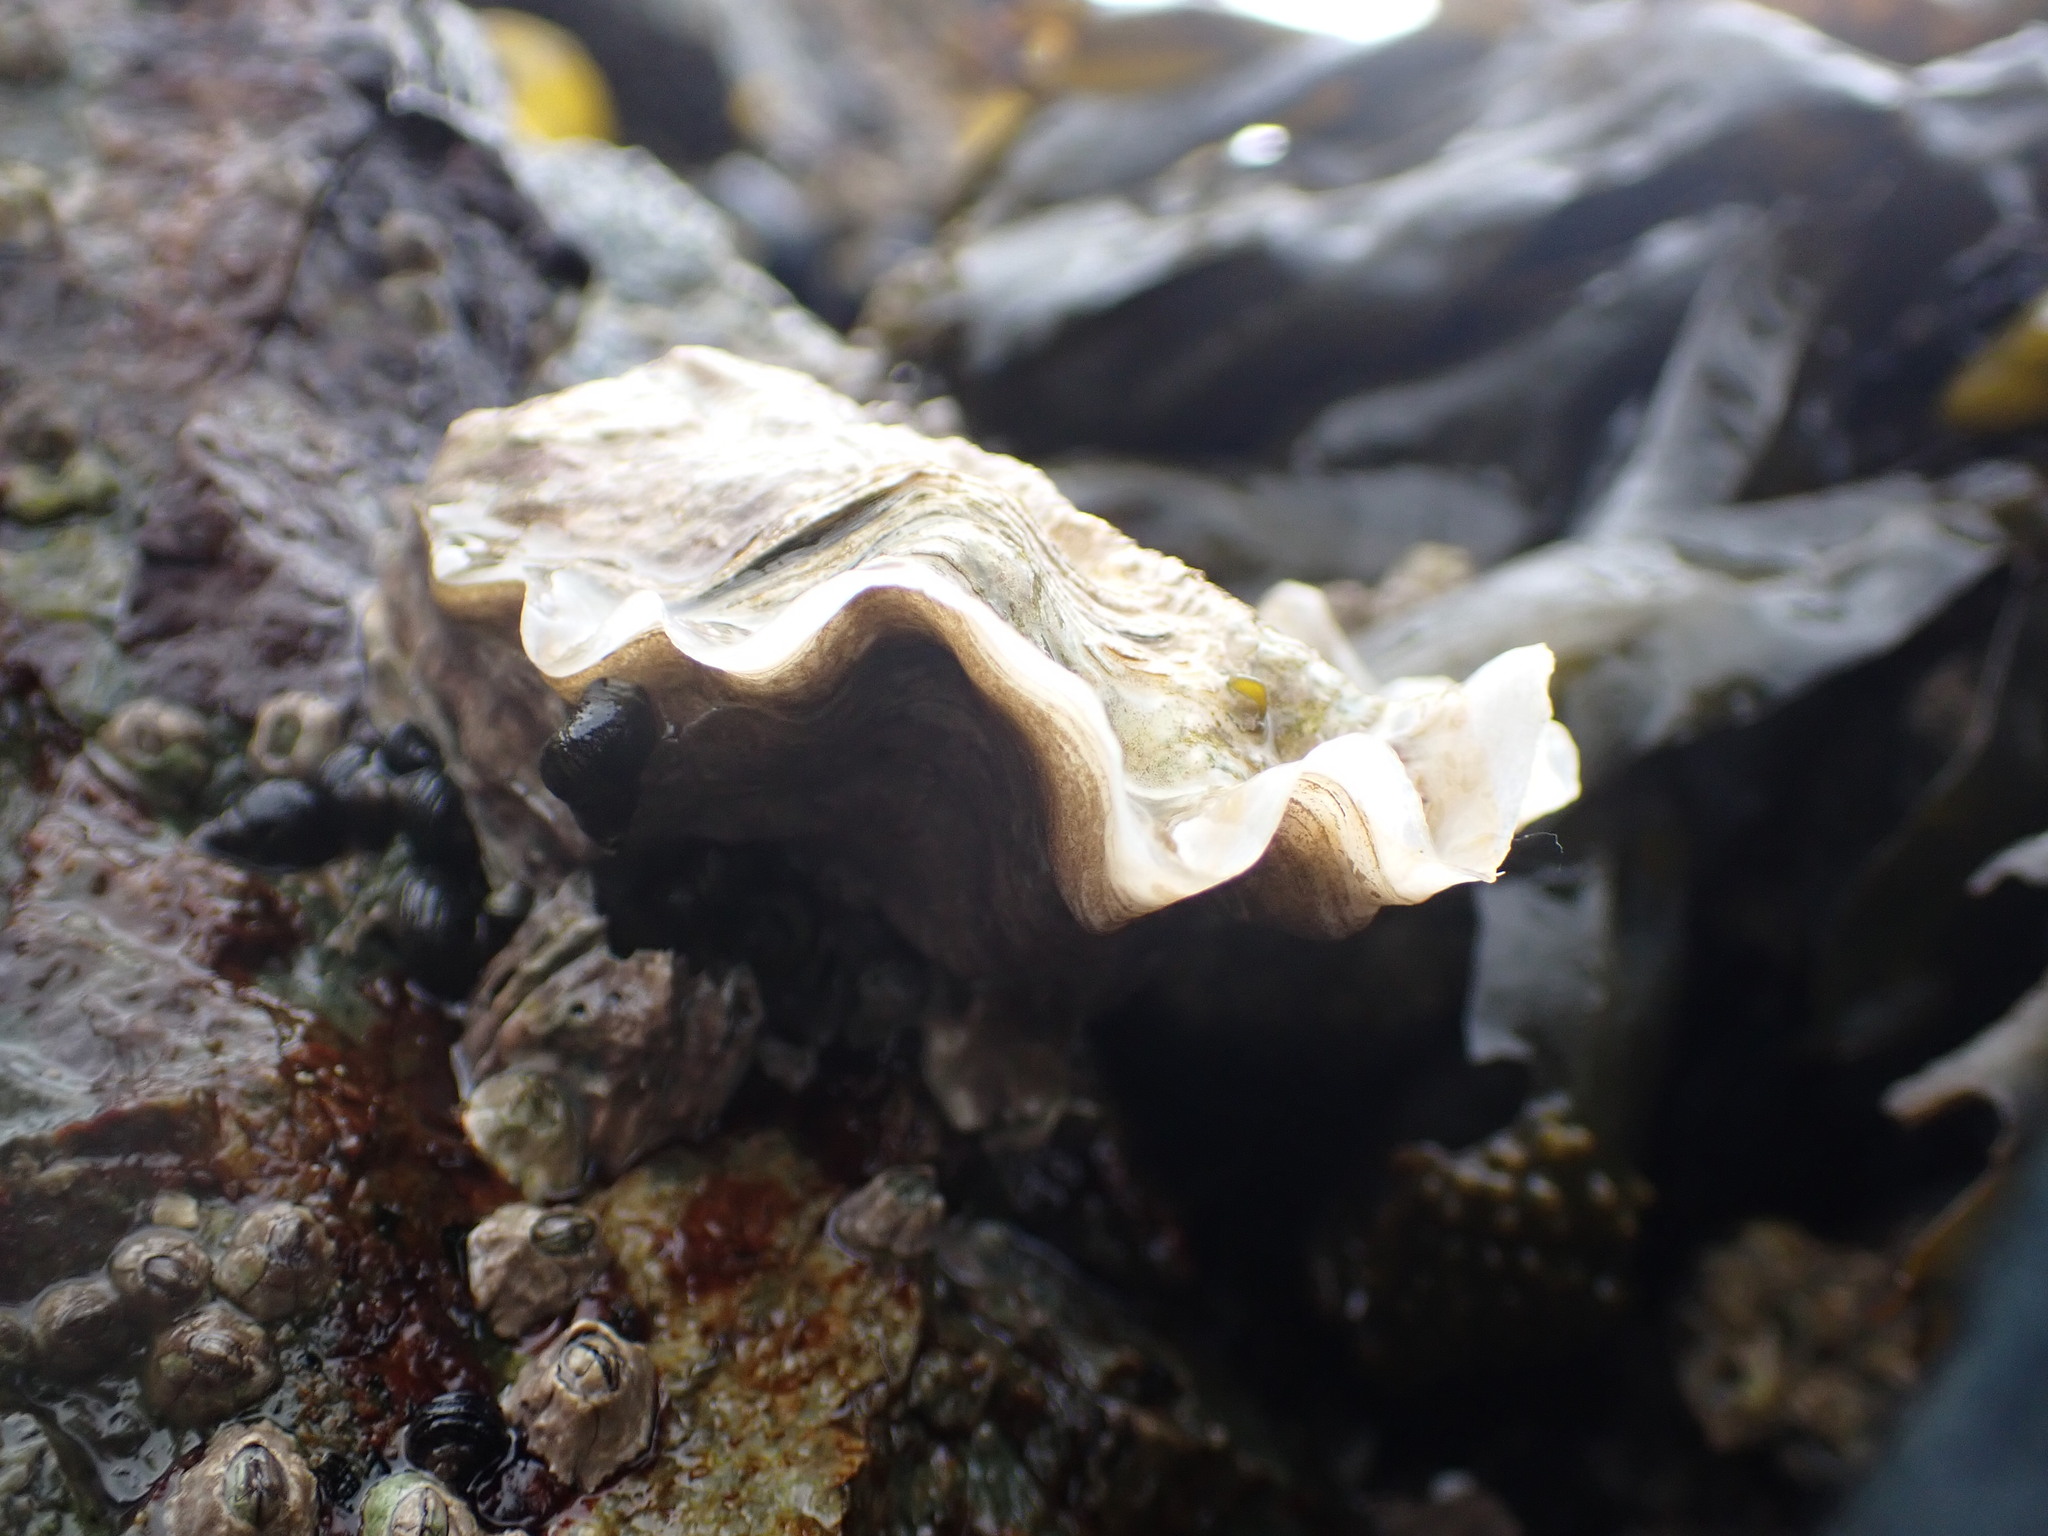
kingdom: Animalia
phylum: Mollusca
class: Bivalvia
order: Ostreida
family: Ostreidae
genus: Magallana
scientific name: Magallana gigas
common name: Pacific oyster
